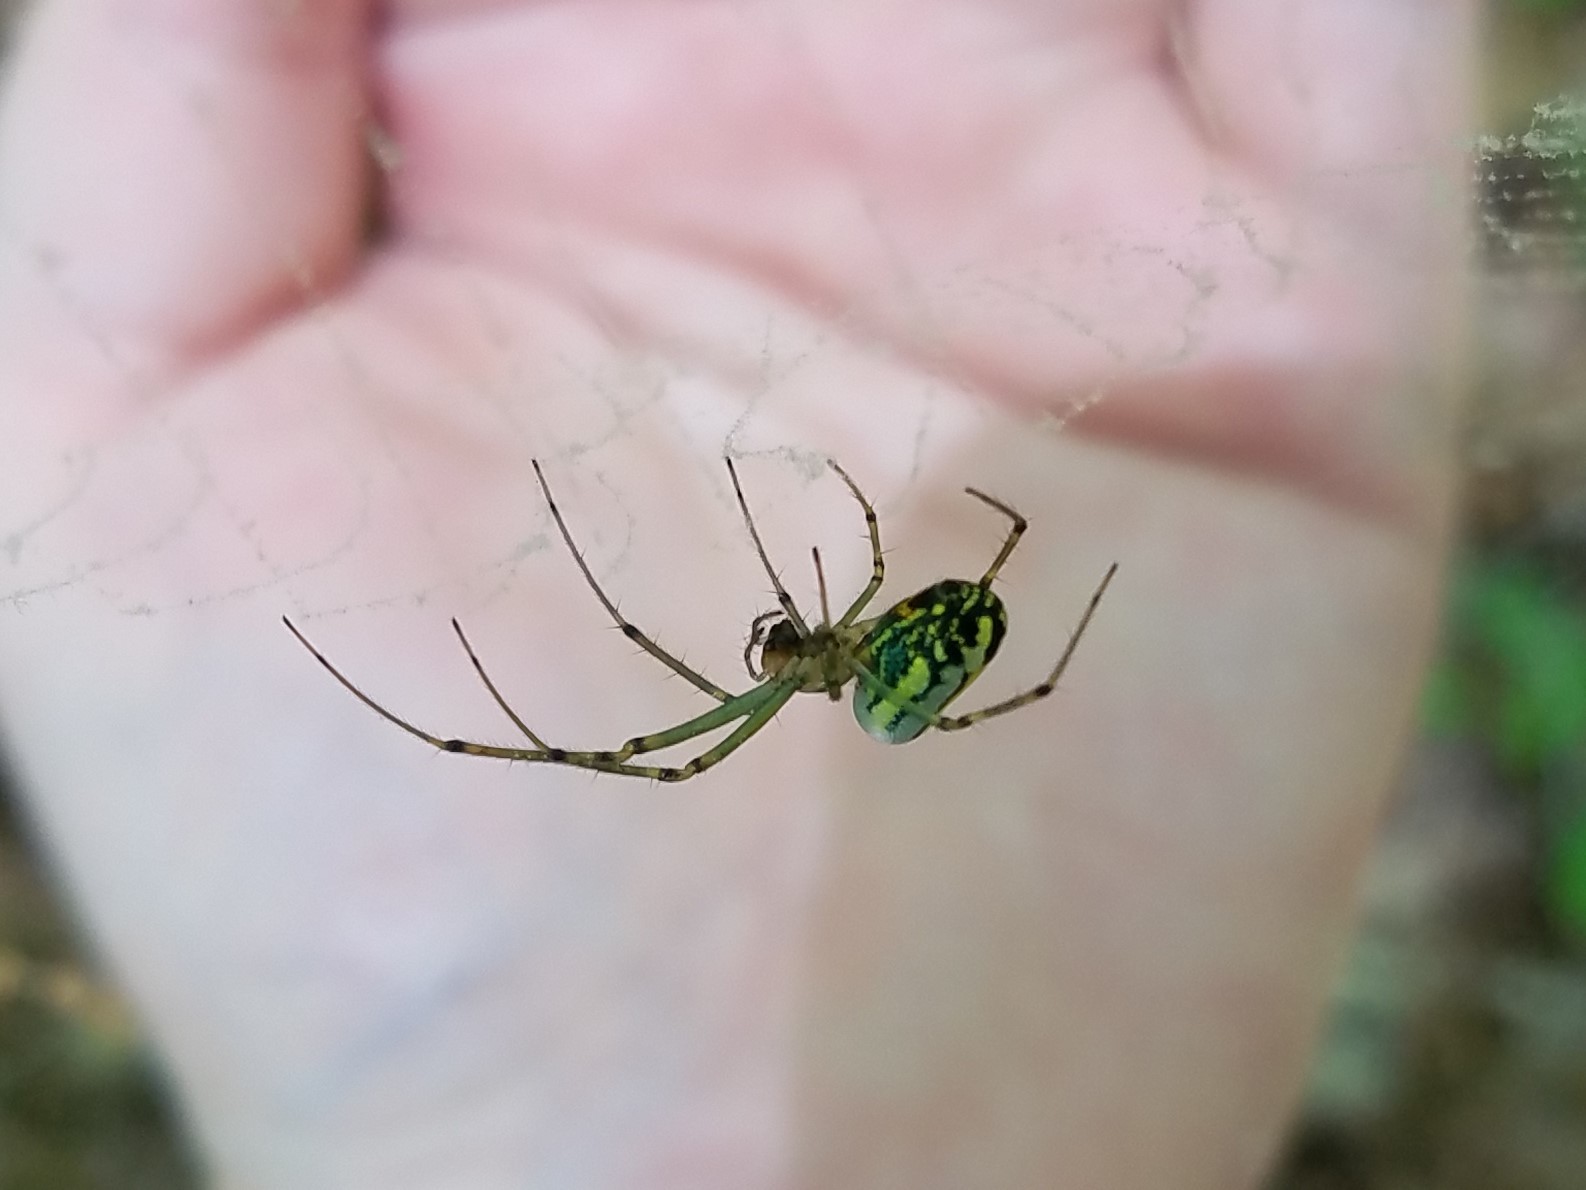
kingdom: Animalia
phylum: Arthropoda
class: Arachnida
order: Araneae
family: Tetragnathidae
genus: Leucauge
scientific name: Leucauge venusta
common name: Longjawed orb weavers
